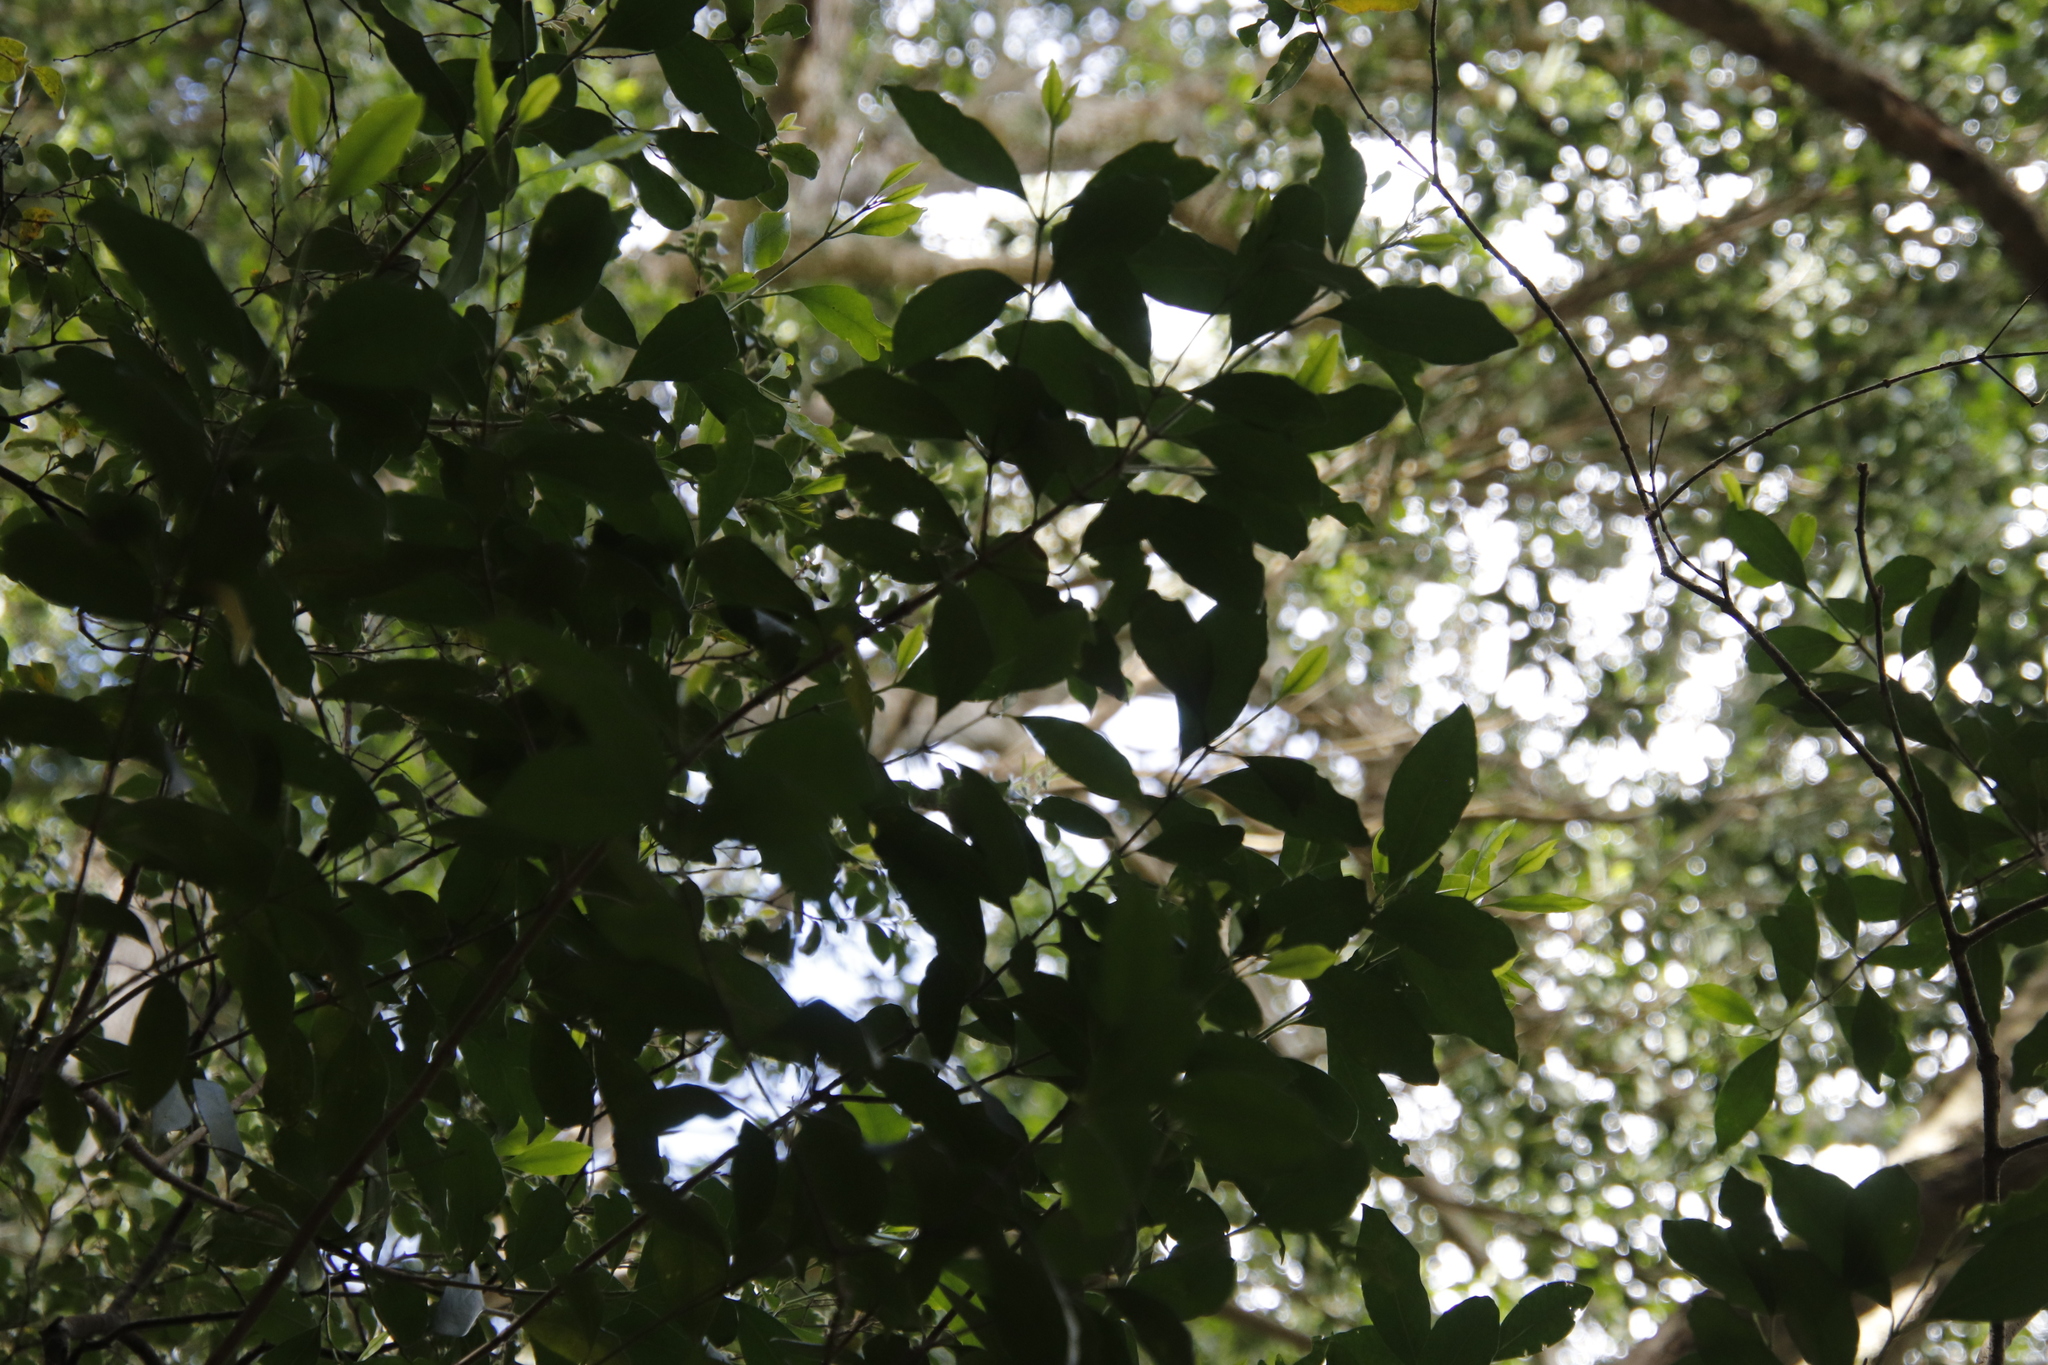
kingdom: Plantae
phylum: Tracheophyta
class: Magnoliopsida
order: Lamiales
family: Oleaceae
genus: Olea
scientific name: Olea capensis
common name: Black ironwood
